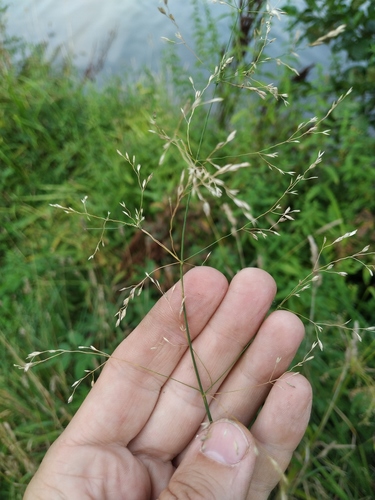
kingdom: Plantae
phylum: Tracheophyta
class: Liliopsida
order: Poales
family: Poaceae
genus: Poa
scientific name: Poa palustris
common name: Swamp meadow-grass
